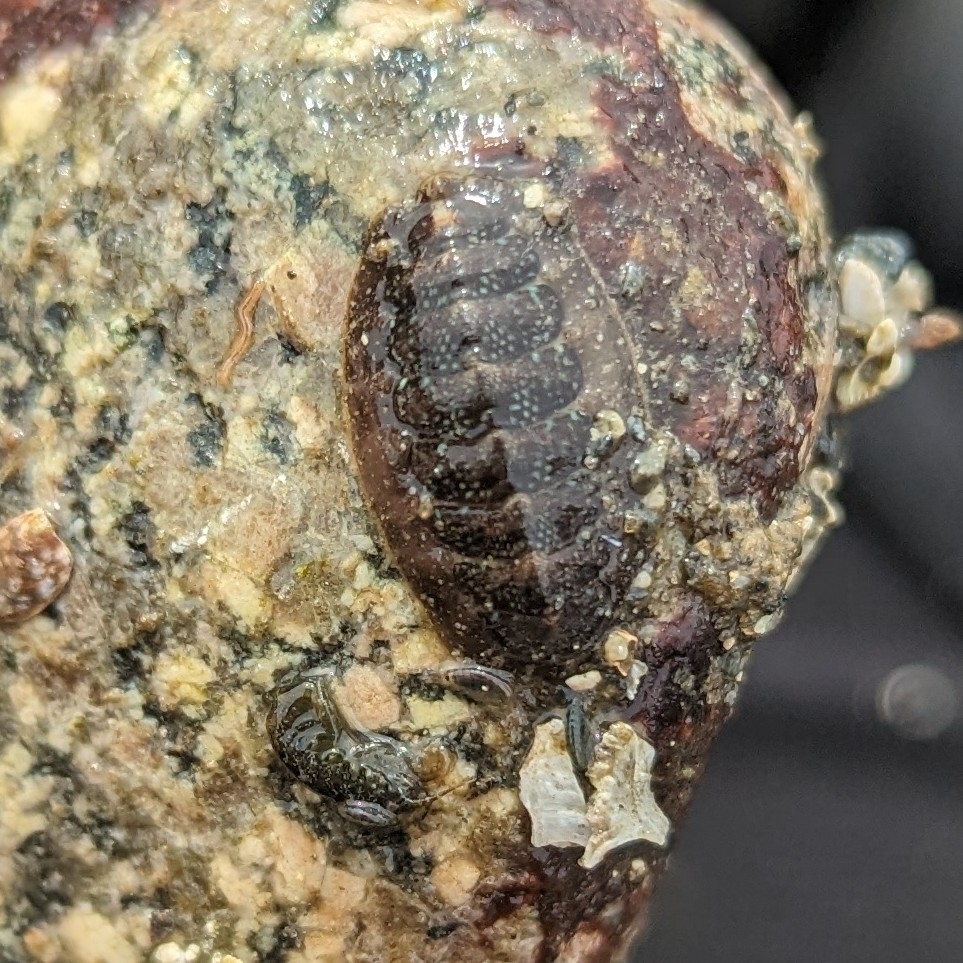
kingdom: Animalia
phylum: Mollusca
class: Polyplacophora
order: Chitonida
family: Tonicellidae
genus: Cyanoplax
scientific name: Cyanoplax dentiens
